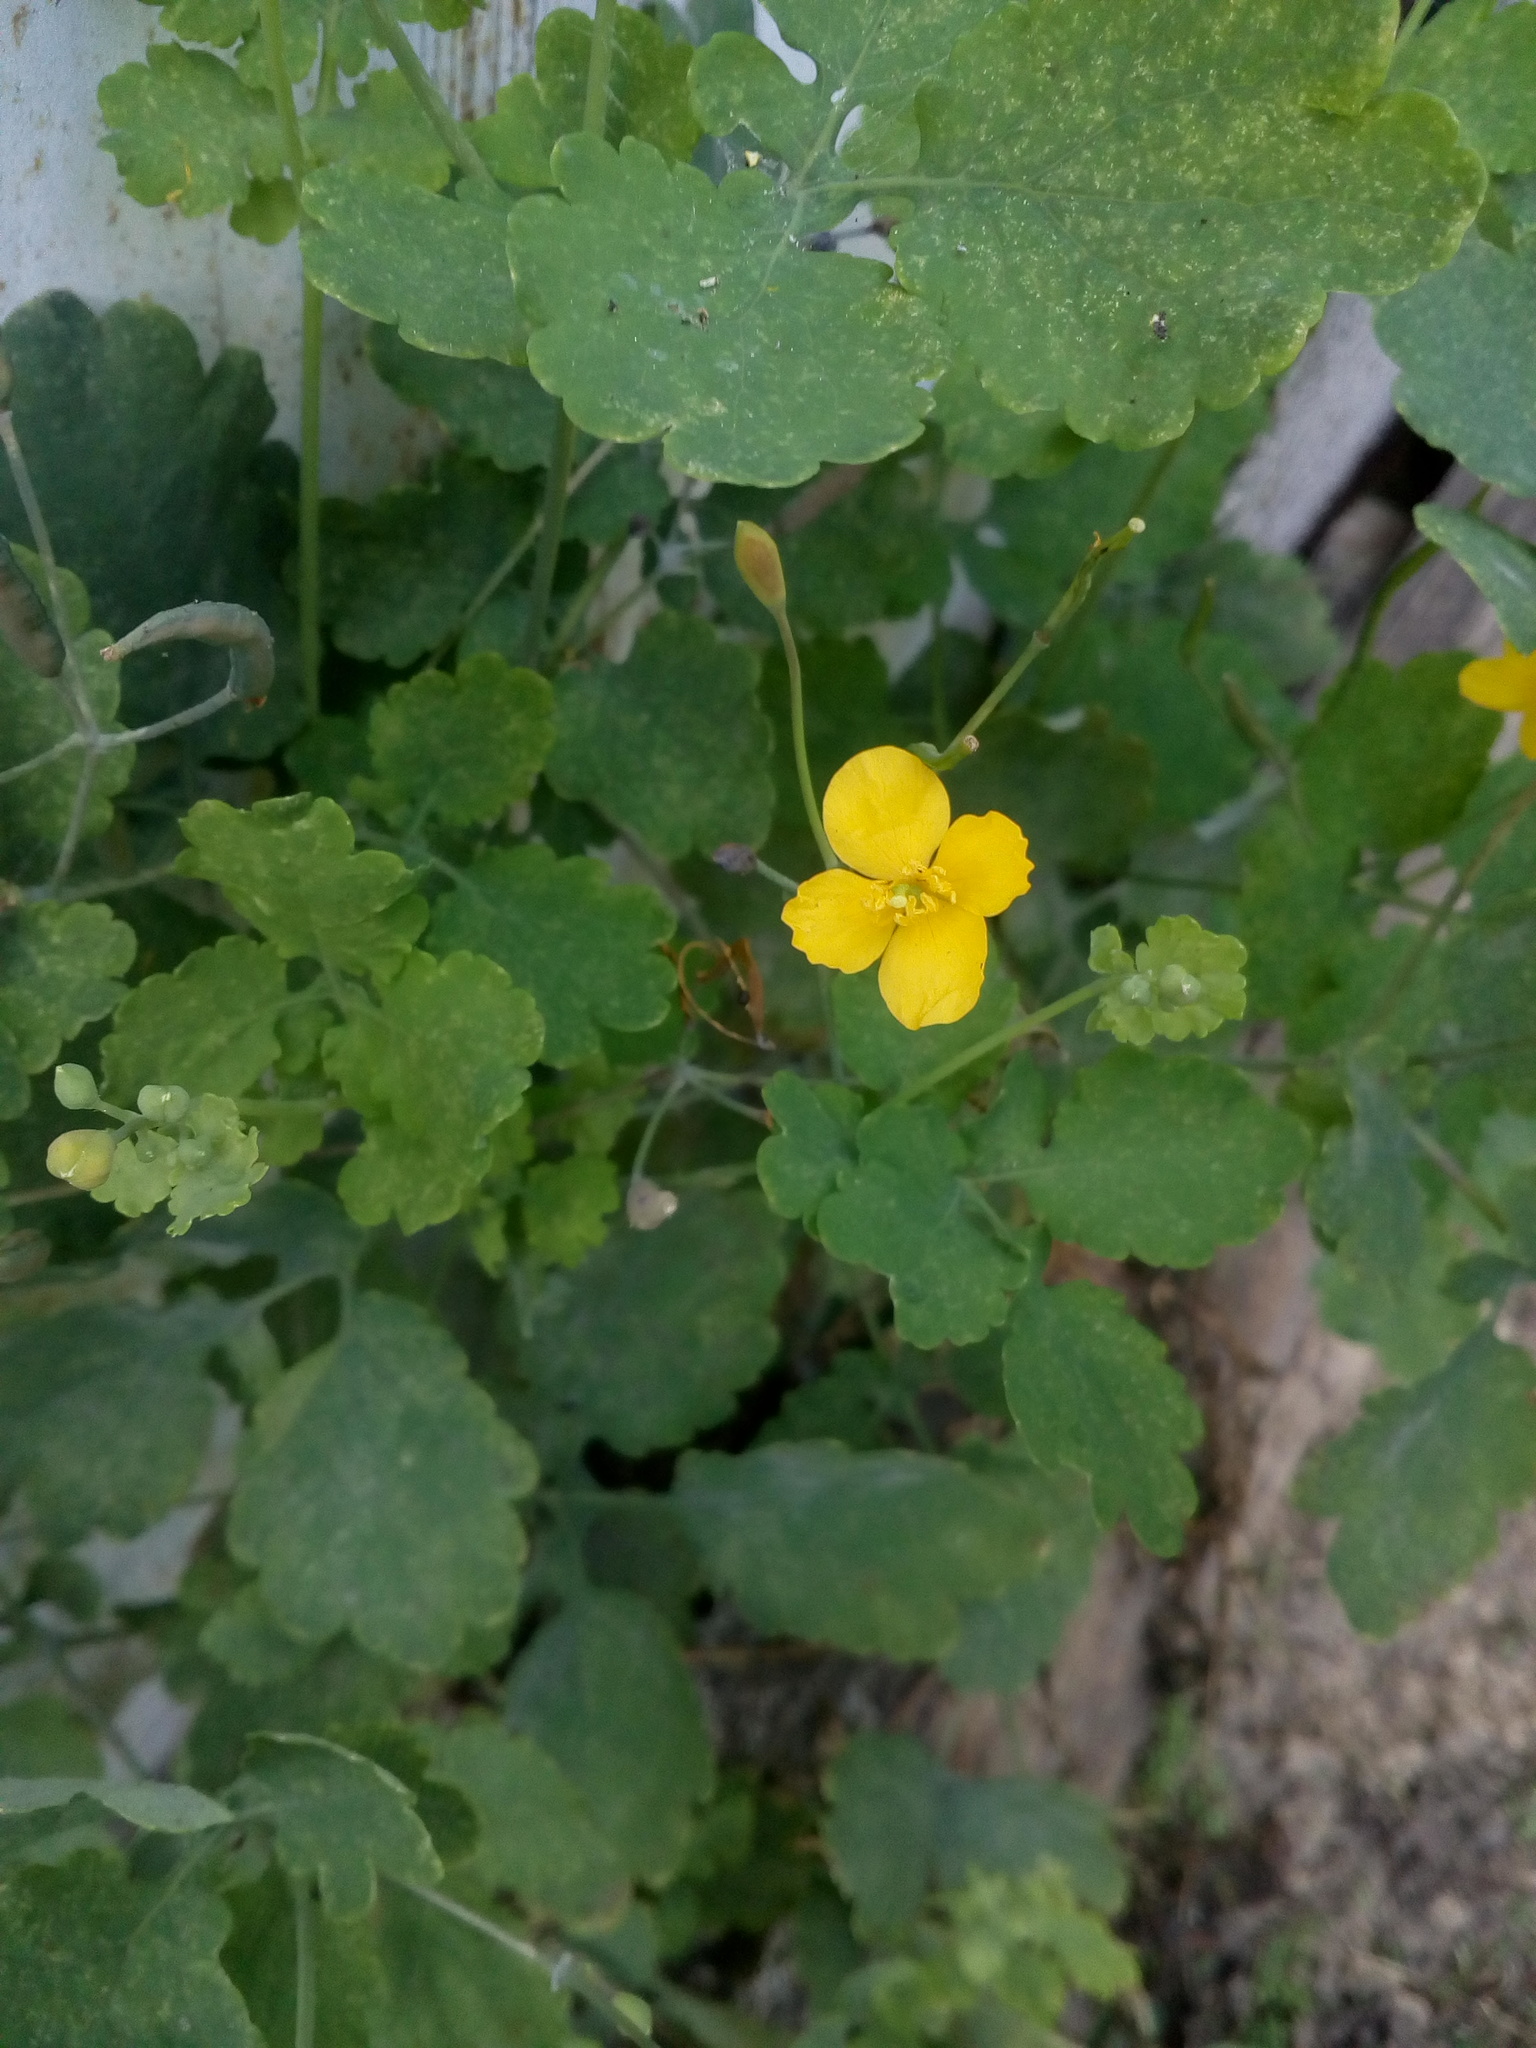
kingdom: Plantae
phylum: Tracheophyta
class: Magnoliopsida
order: Ranunculales
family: Papaveraceae
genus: Chelidonium
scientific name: Chelidonium majus
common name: Greater celandine
